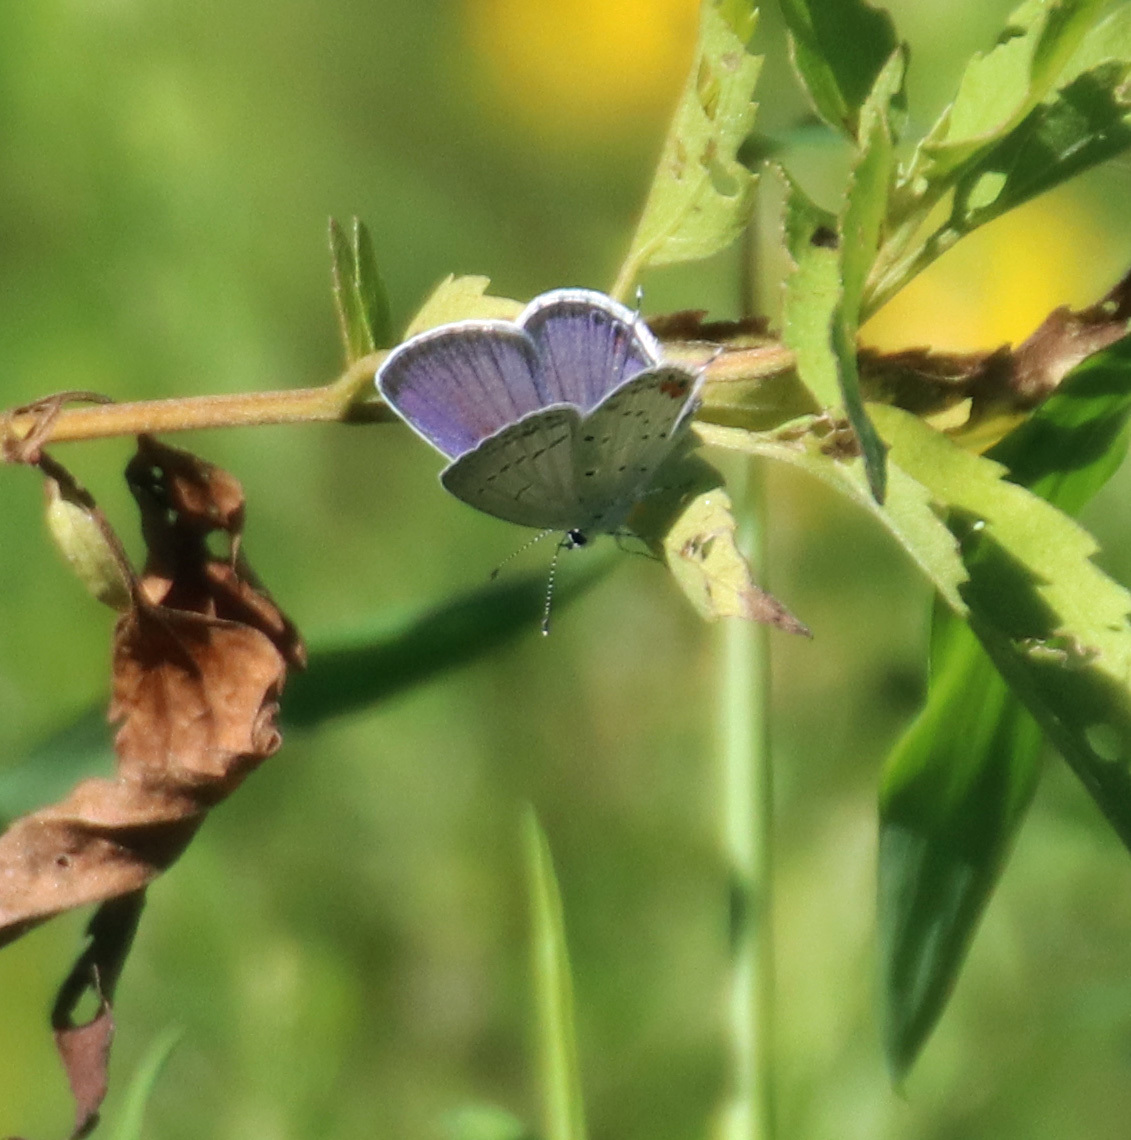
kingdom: Animalia
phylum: Arthropoda
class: Insecta
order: Lepidoptera
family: Lycaenidae
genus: Elkalyce
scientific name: Elkalyce comyntas
